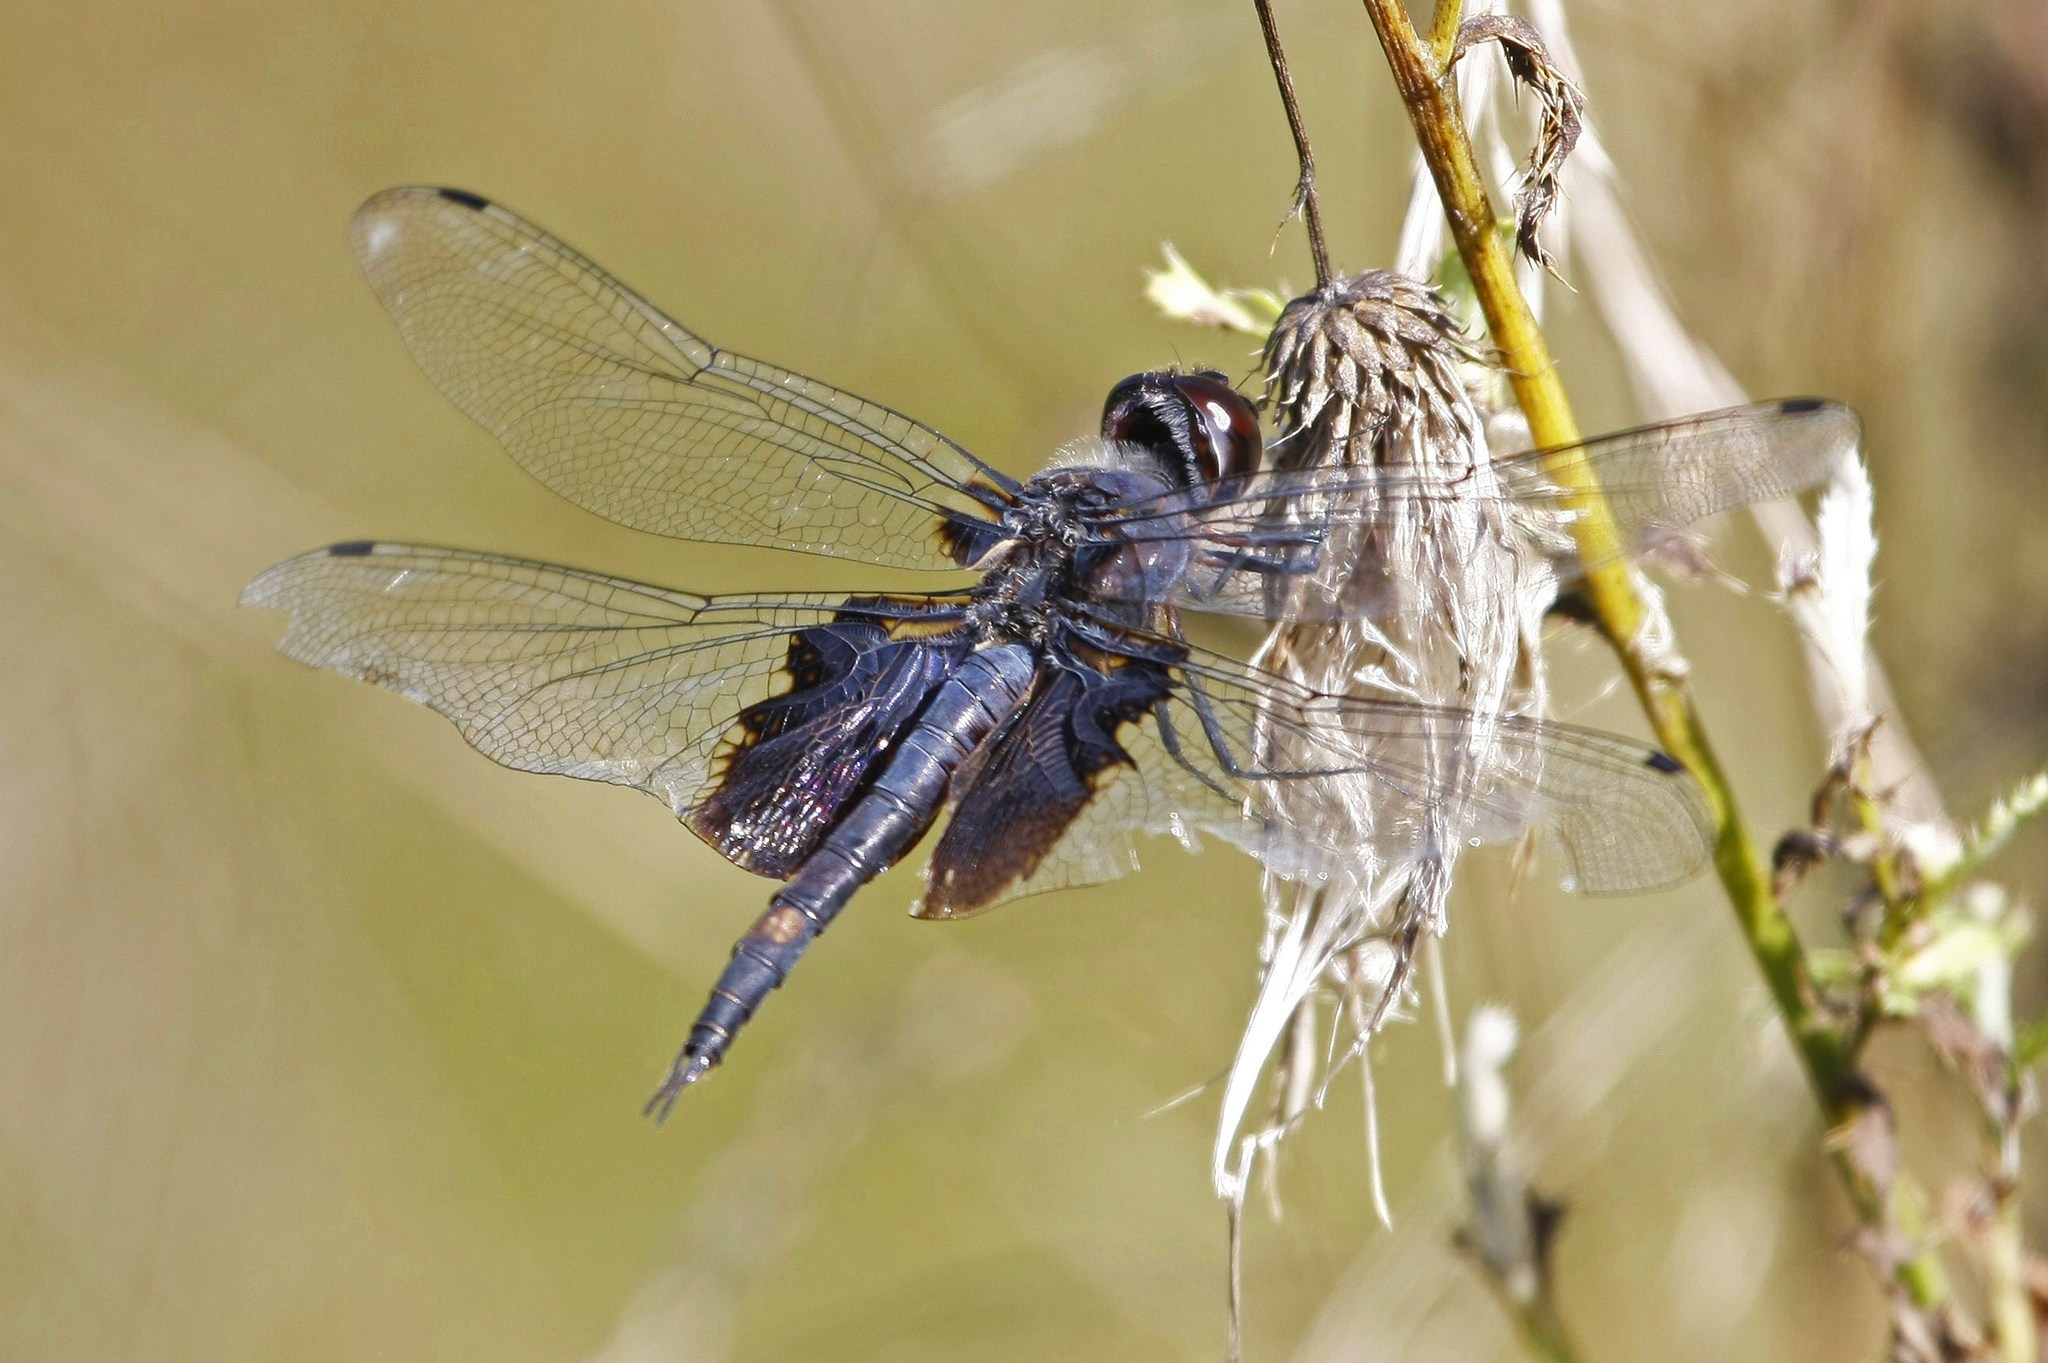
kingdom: Animalia
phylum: Arthropoda
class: Insecta
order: Odonata
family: Libellulidae
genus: Tramea
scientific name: Tramea lacerata
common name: Black saddlebags
